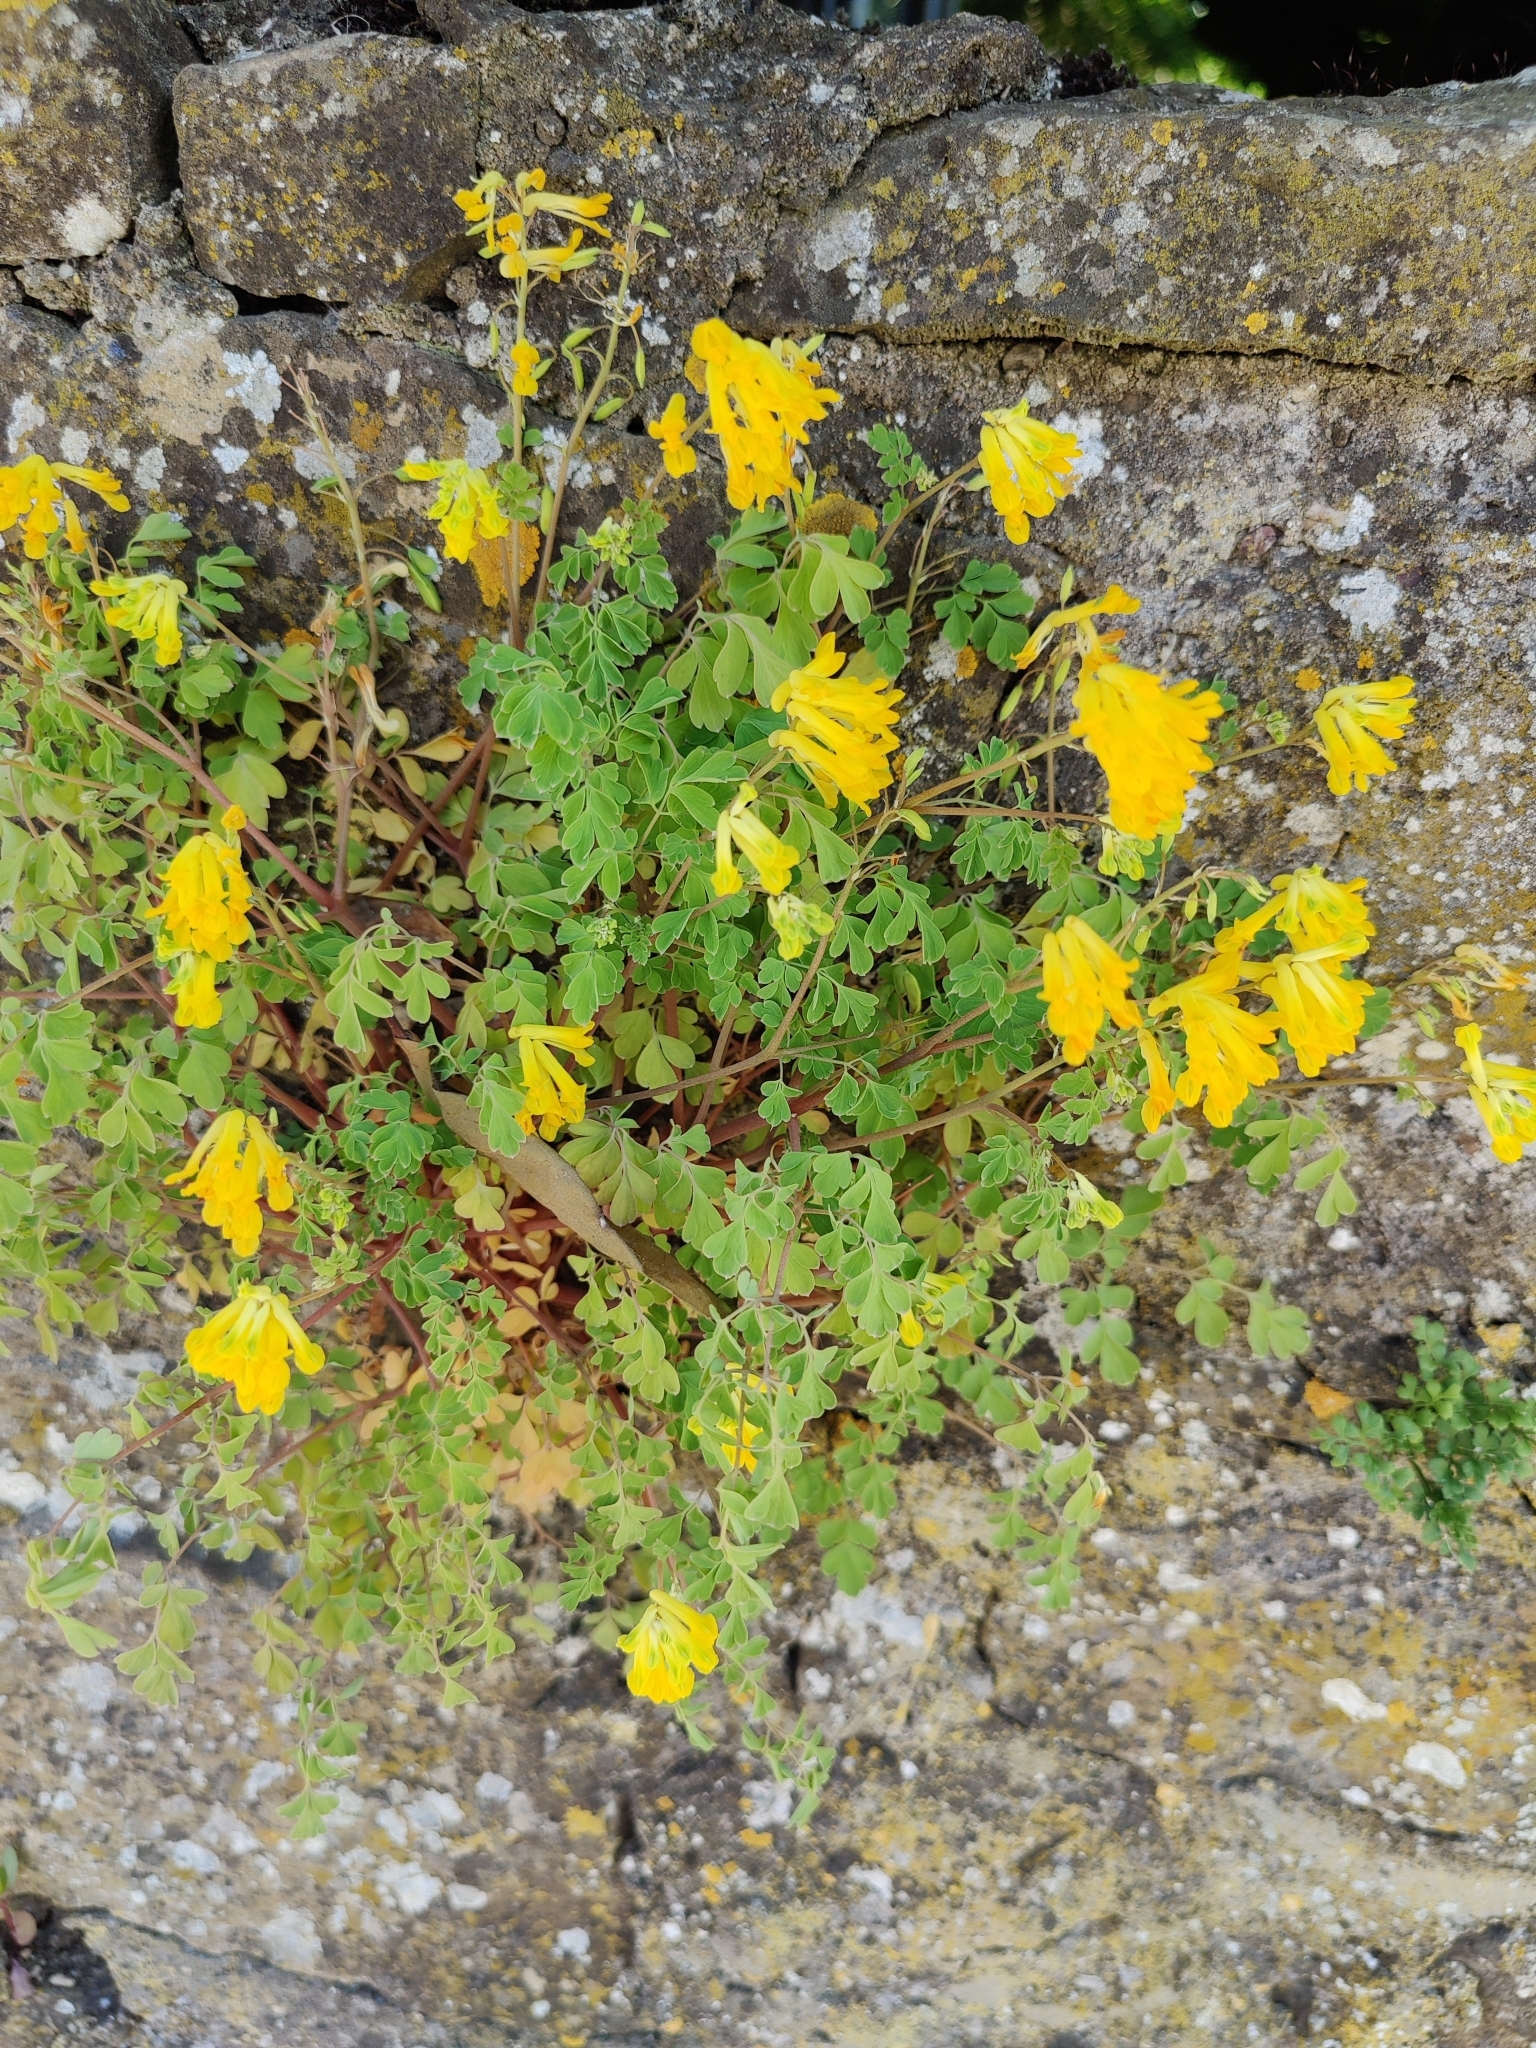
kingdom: Plantae
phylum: Tracheophyta
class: Magnoliopsida
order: Ranunculales
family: Papaveraceae
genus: Pseudofumaria
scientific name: Pseudofumaria lutea
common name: Yellow corydalis
